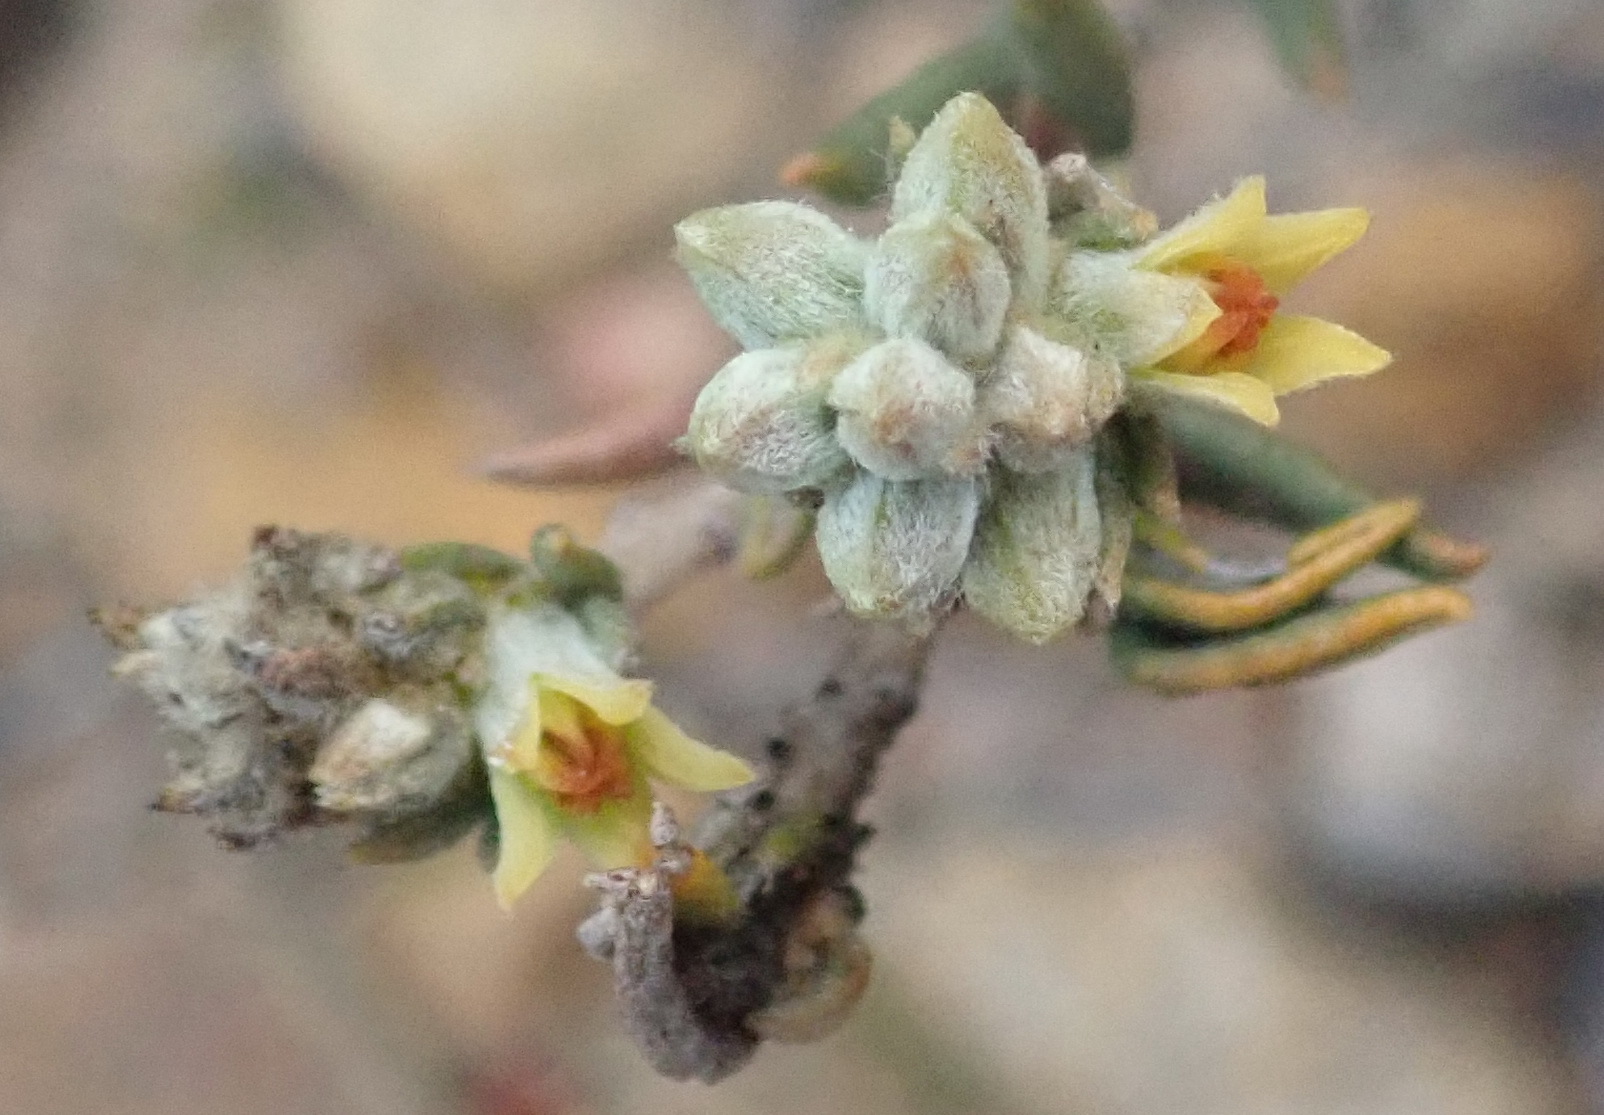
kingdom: Plantae
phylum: Tracheophyta
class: Magnoliopsida
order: Rosales
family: Rhamnaceae
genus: Phylica
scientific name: Phylica strigulosa
